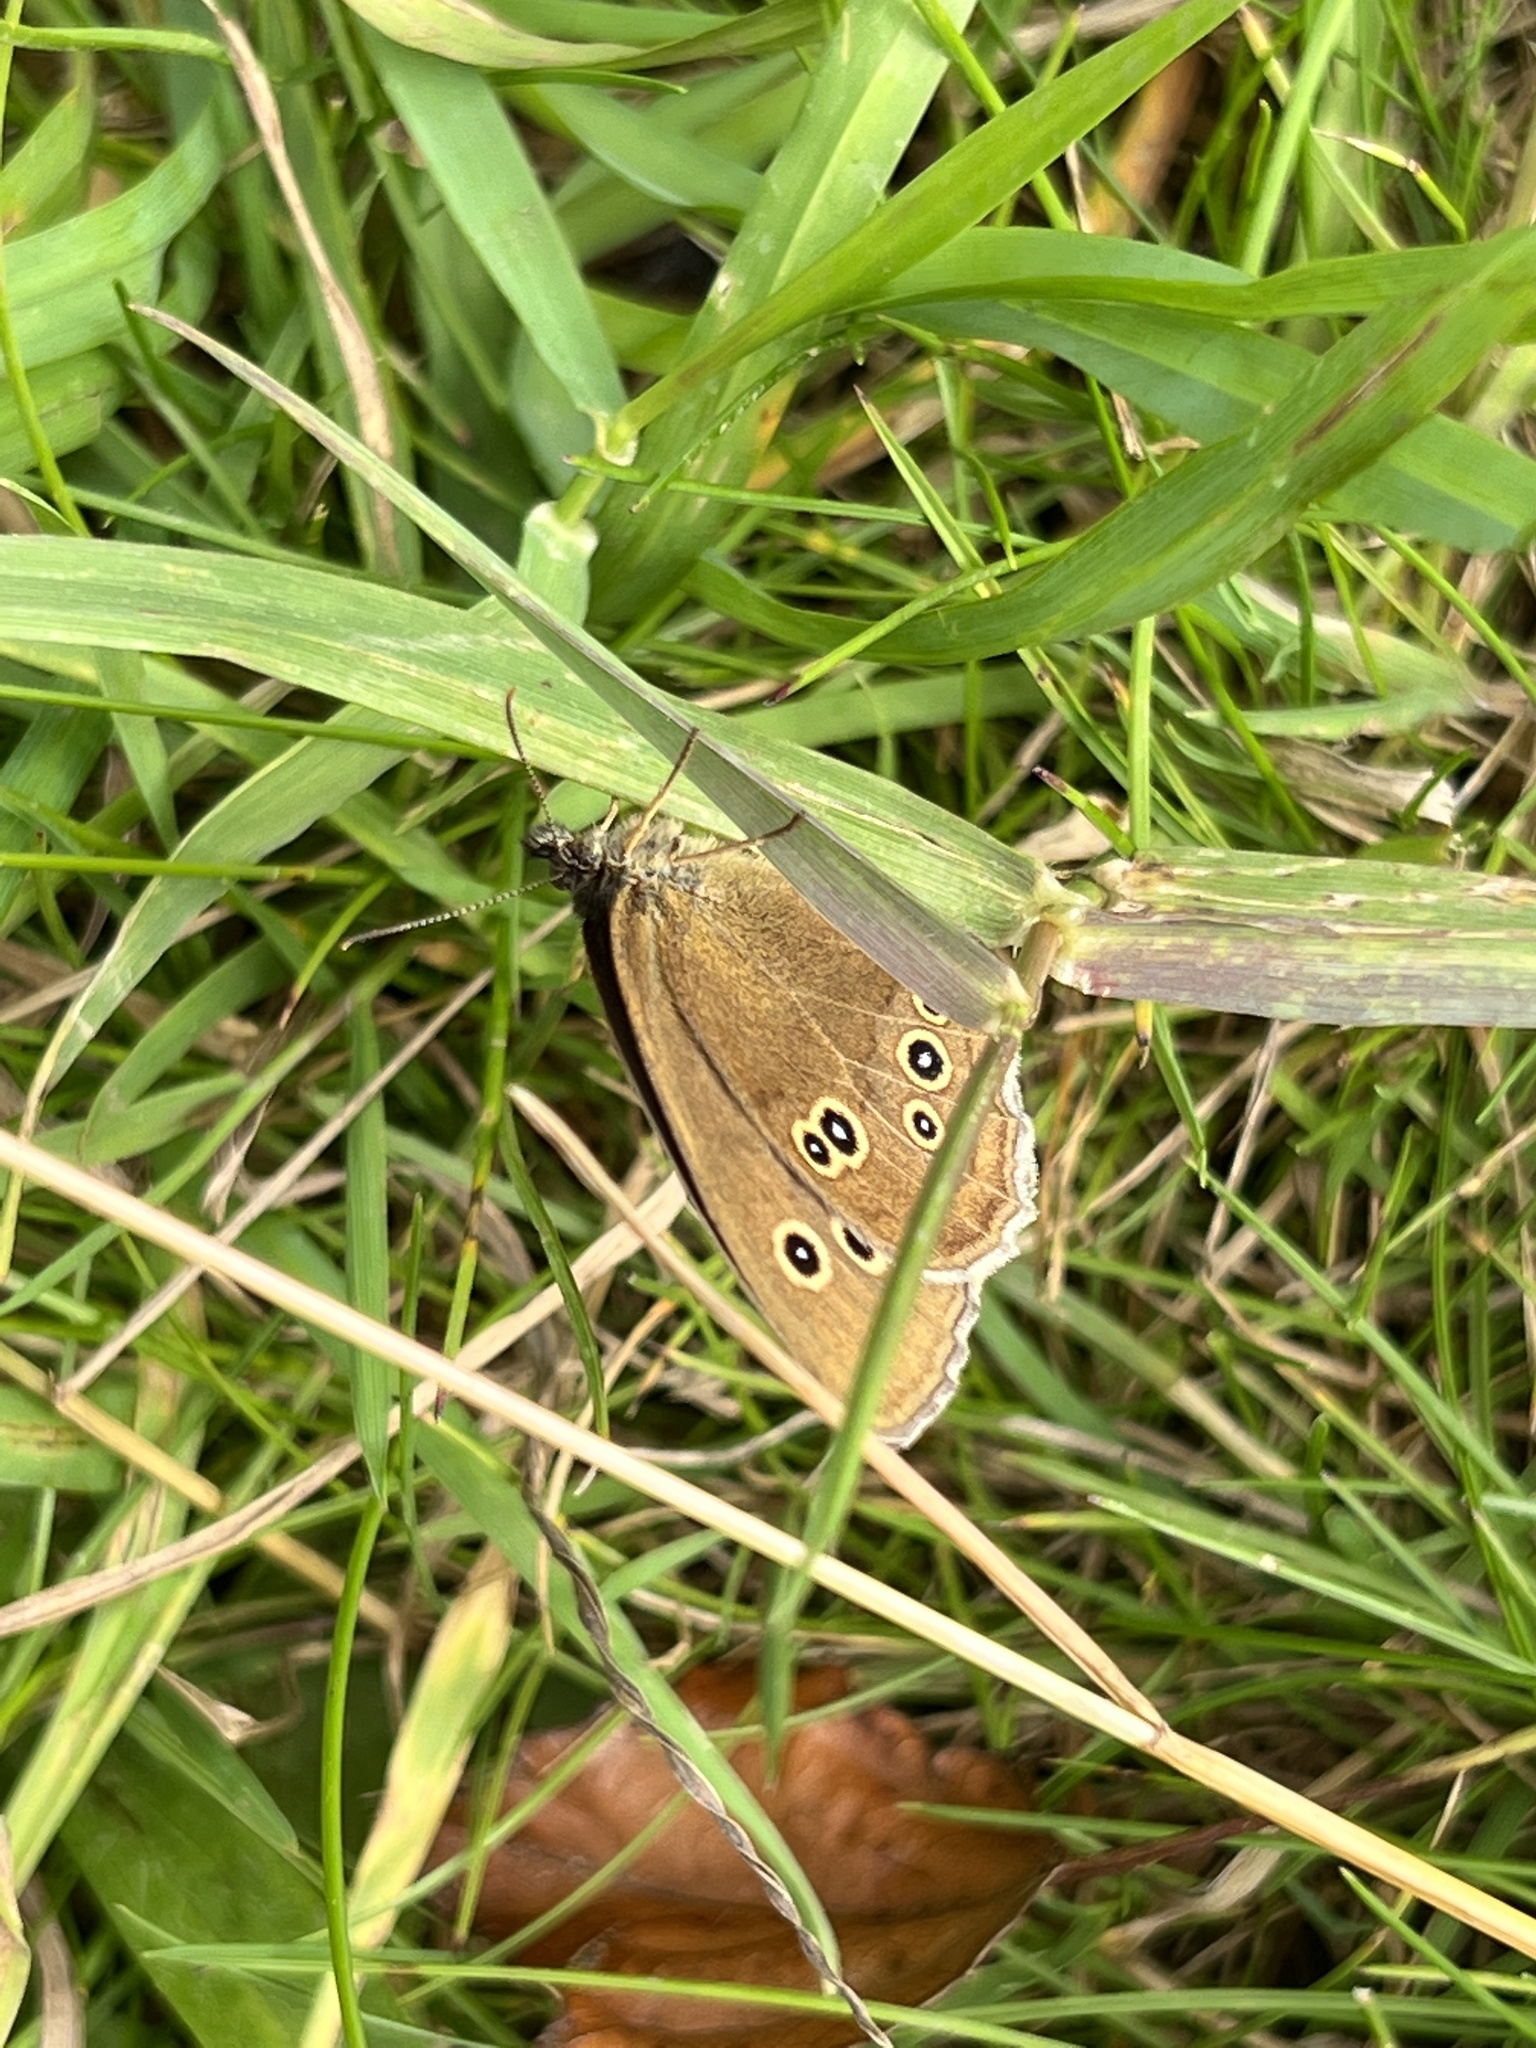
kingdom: Animalia
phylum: Arthropoda
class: Insecta
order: Lepidoptera
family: Nymphalidae
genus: Aphantopus
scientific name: Aphantopus hyperantus
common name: Ringlet
